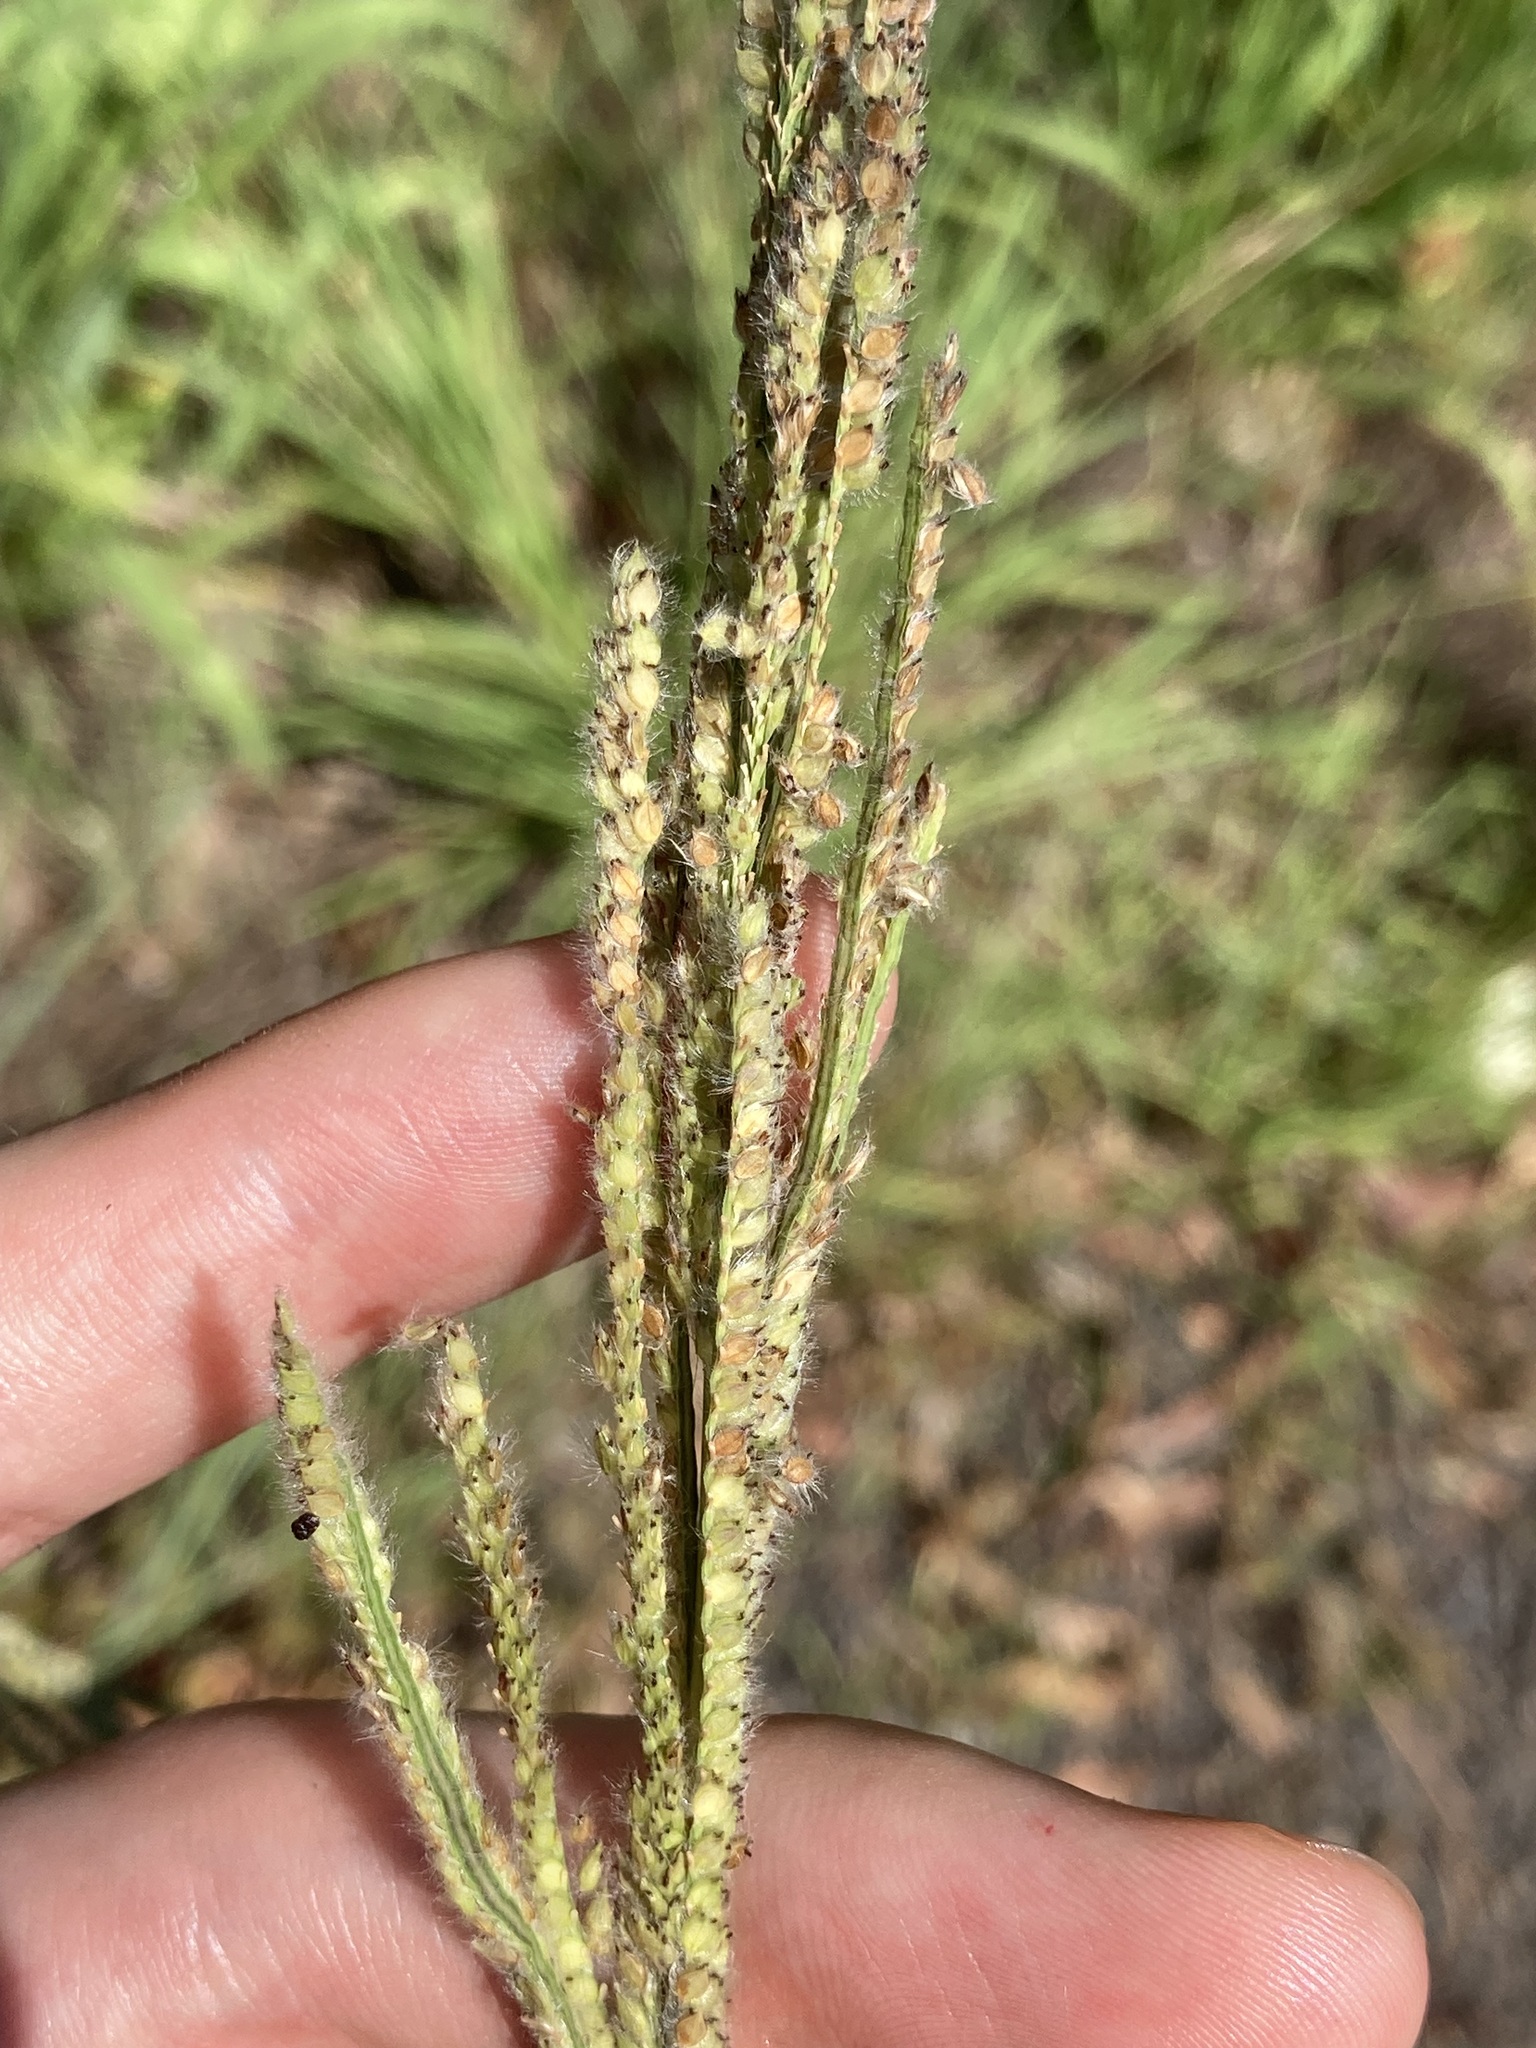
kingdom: Plantae
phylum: Tracheophyta
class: Liliopsida
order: Poales
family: Poaceae
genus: Paspalum
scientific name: Paspalum urvillei
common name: Vasey's grass
